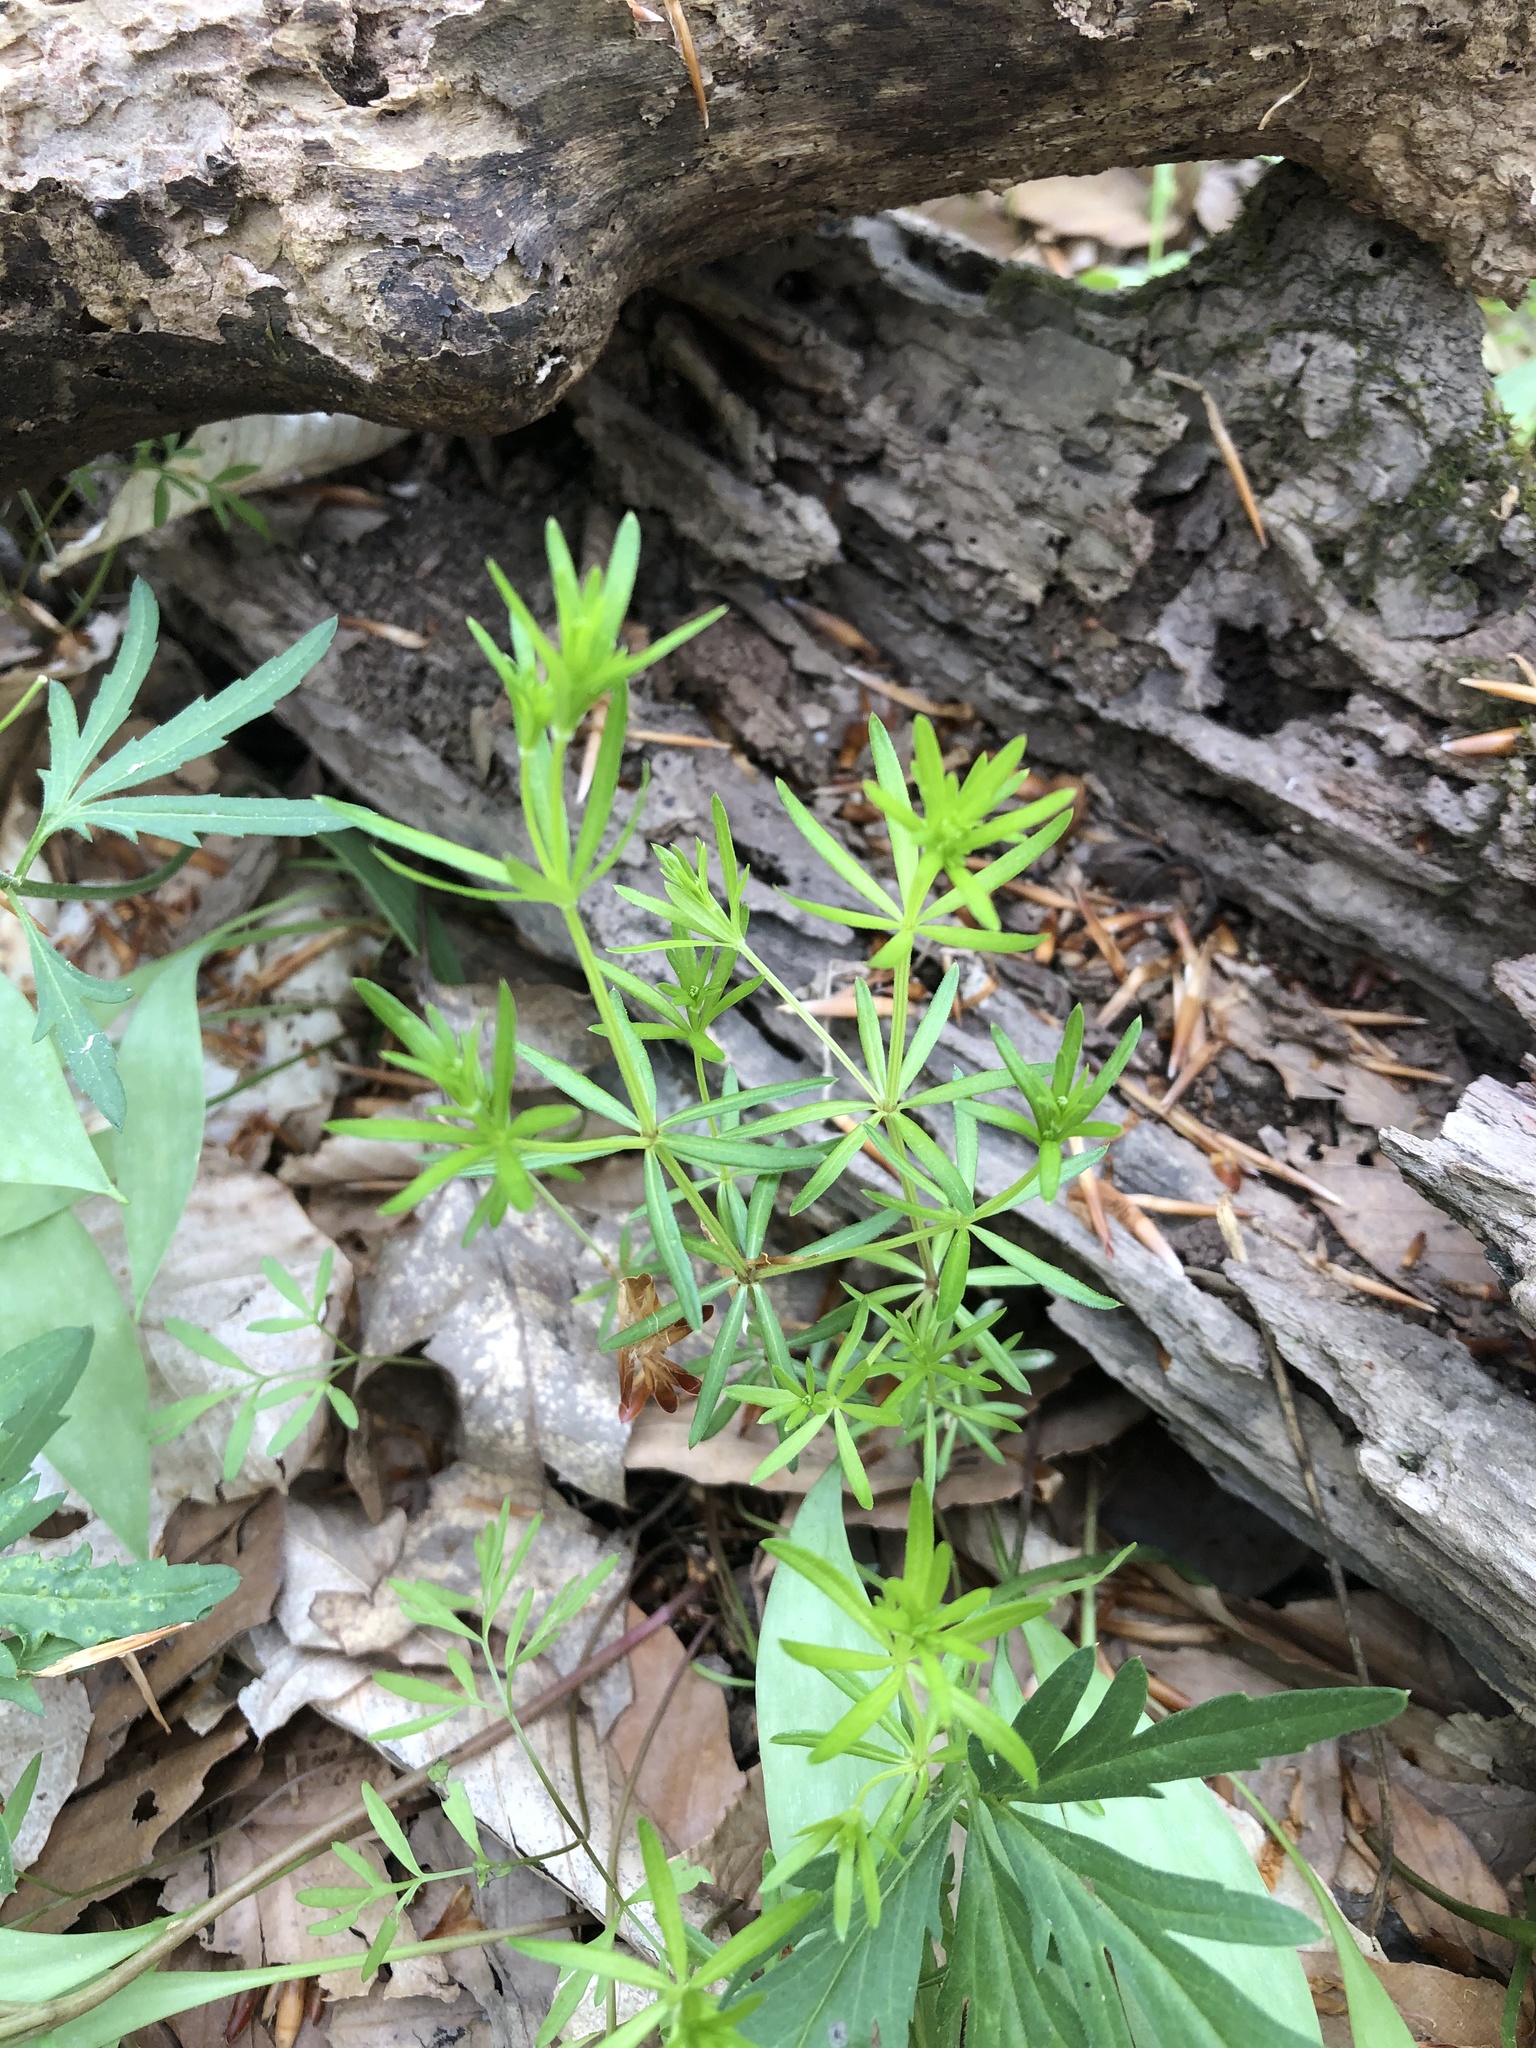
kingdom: Plantae
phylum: Tracheophyta
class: Magnoliopsida
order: Gentianales
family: Rubiaceae
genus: Galium
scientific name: Galium concinnum
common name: Shining bedstraw
